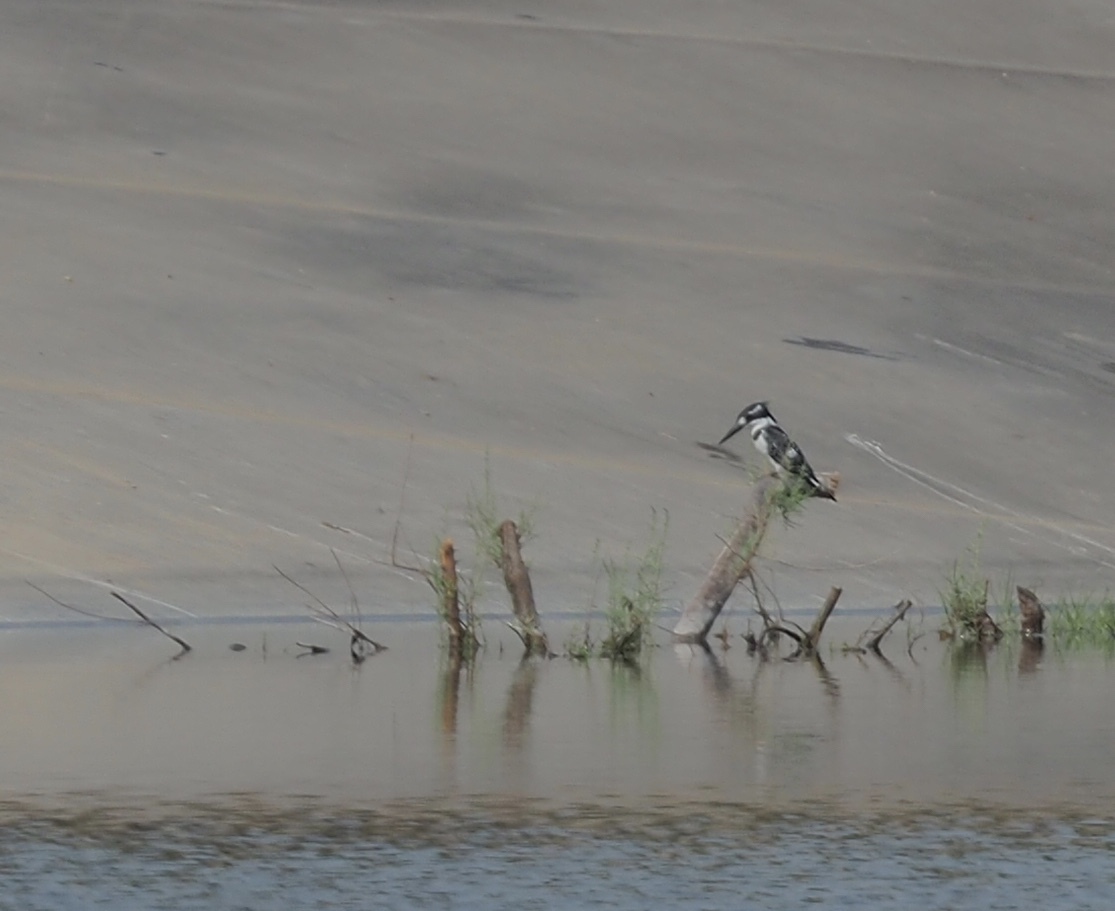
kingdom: Animalia
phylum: Chordata
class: Aves
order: Coraciiformes
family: Alcedinidae
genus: Ceryle
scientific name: Ceryle rudis
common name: Pied kingfisher
